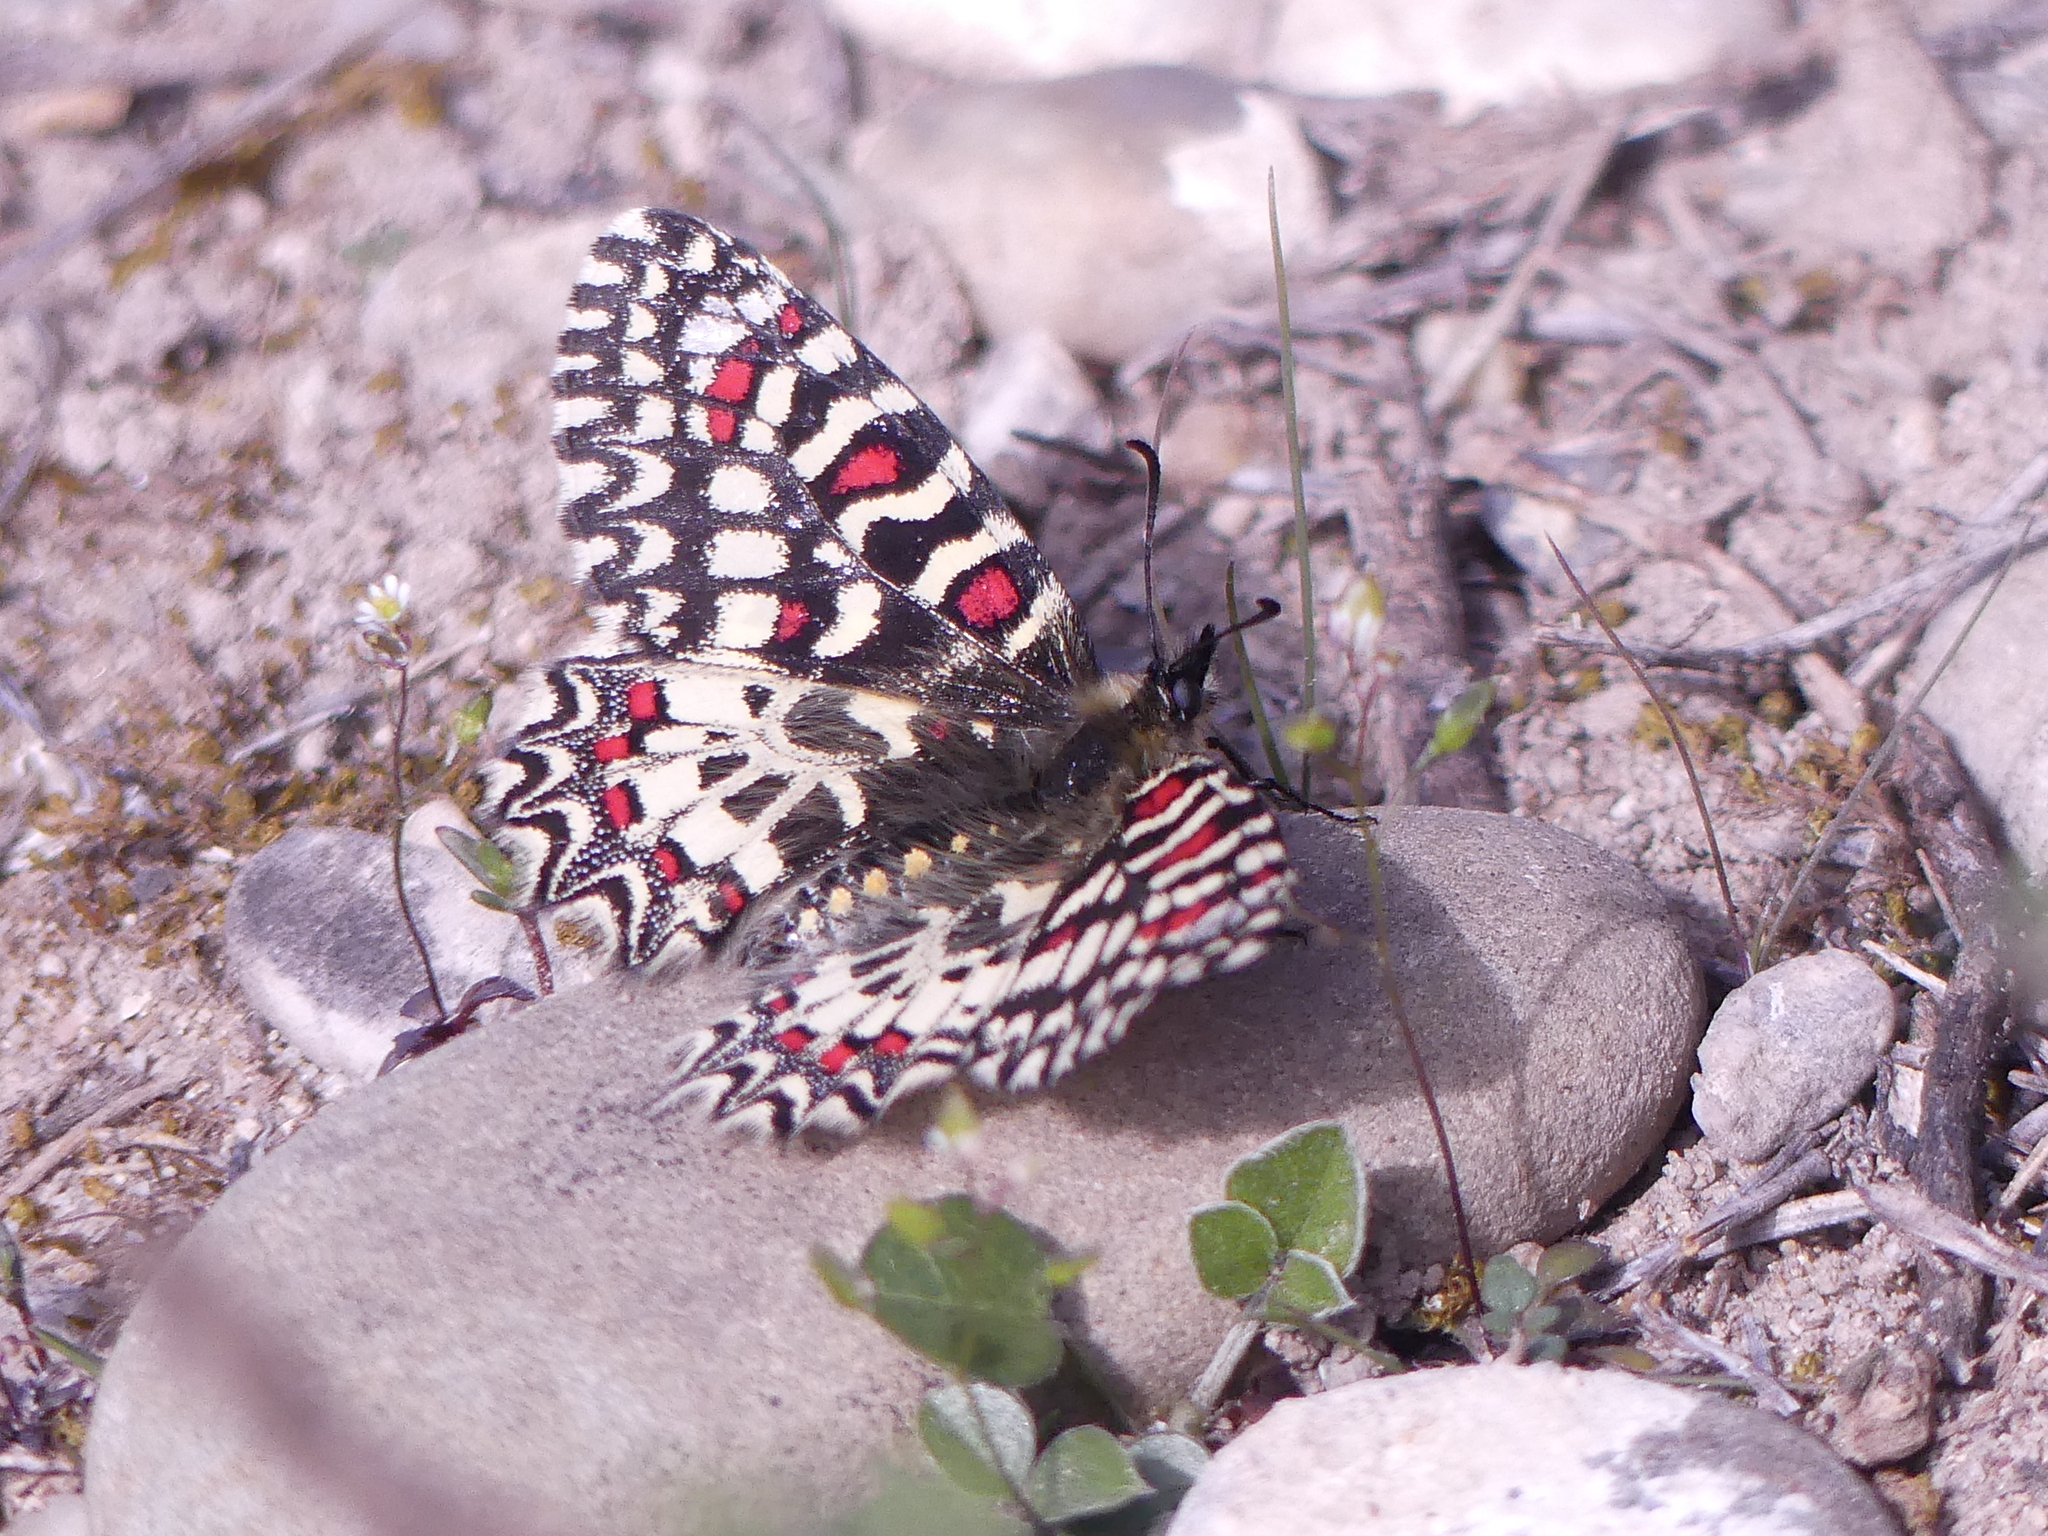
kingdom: Animalia
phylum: Arthropoda
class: Insecta
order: Lepidoptera
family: Papilionidae
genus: Zerynthia
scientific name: Zerynthia rumina
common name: Spanish festoon
